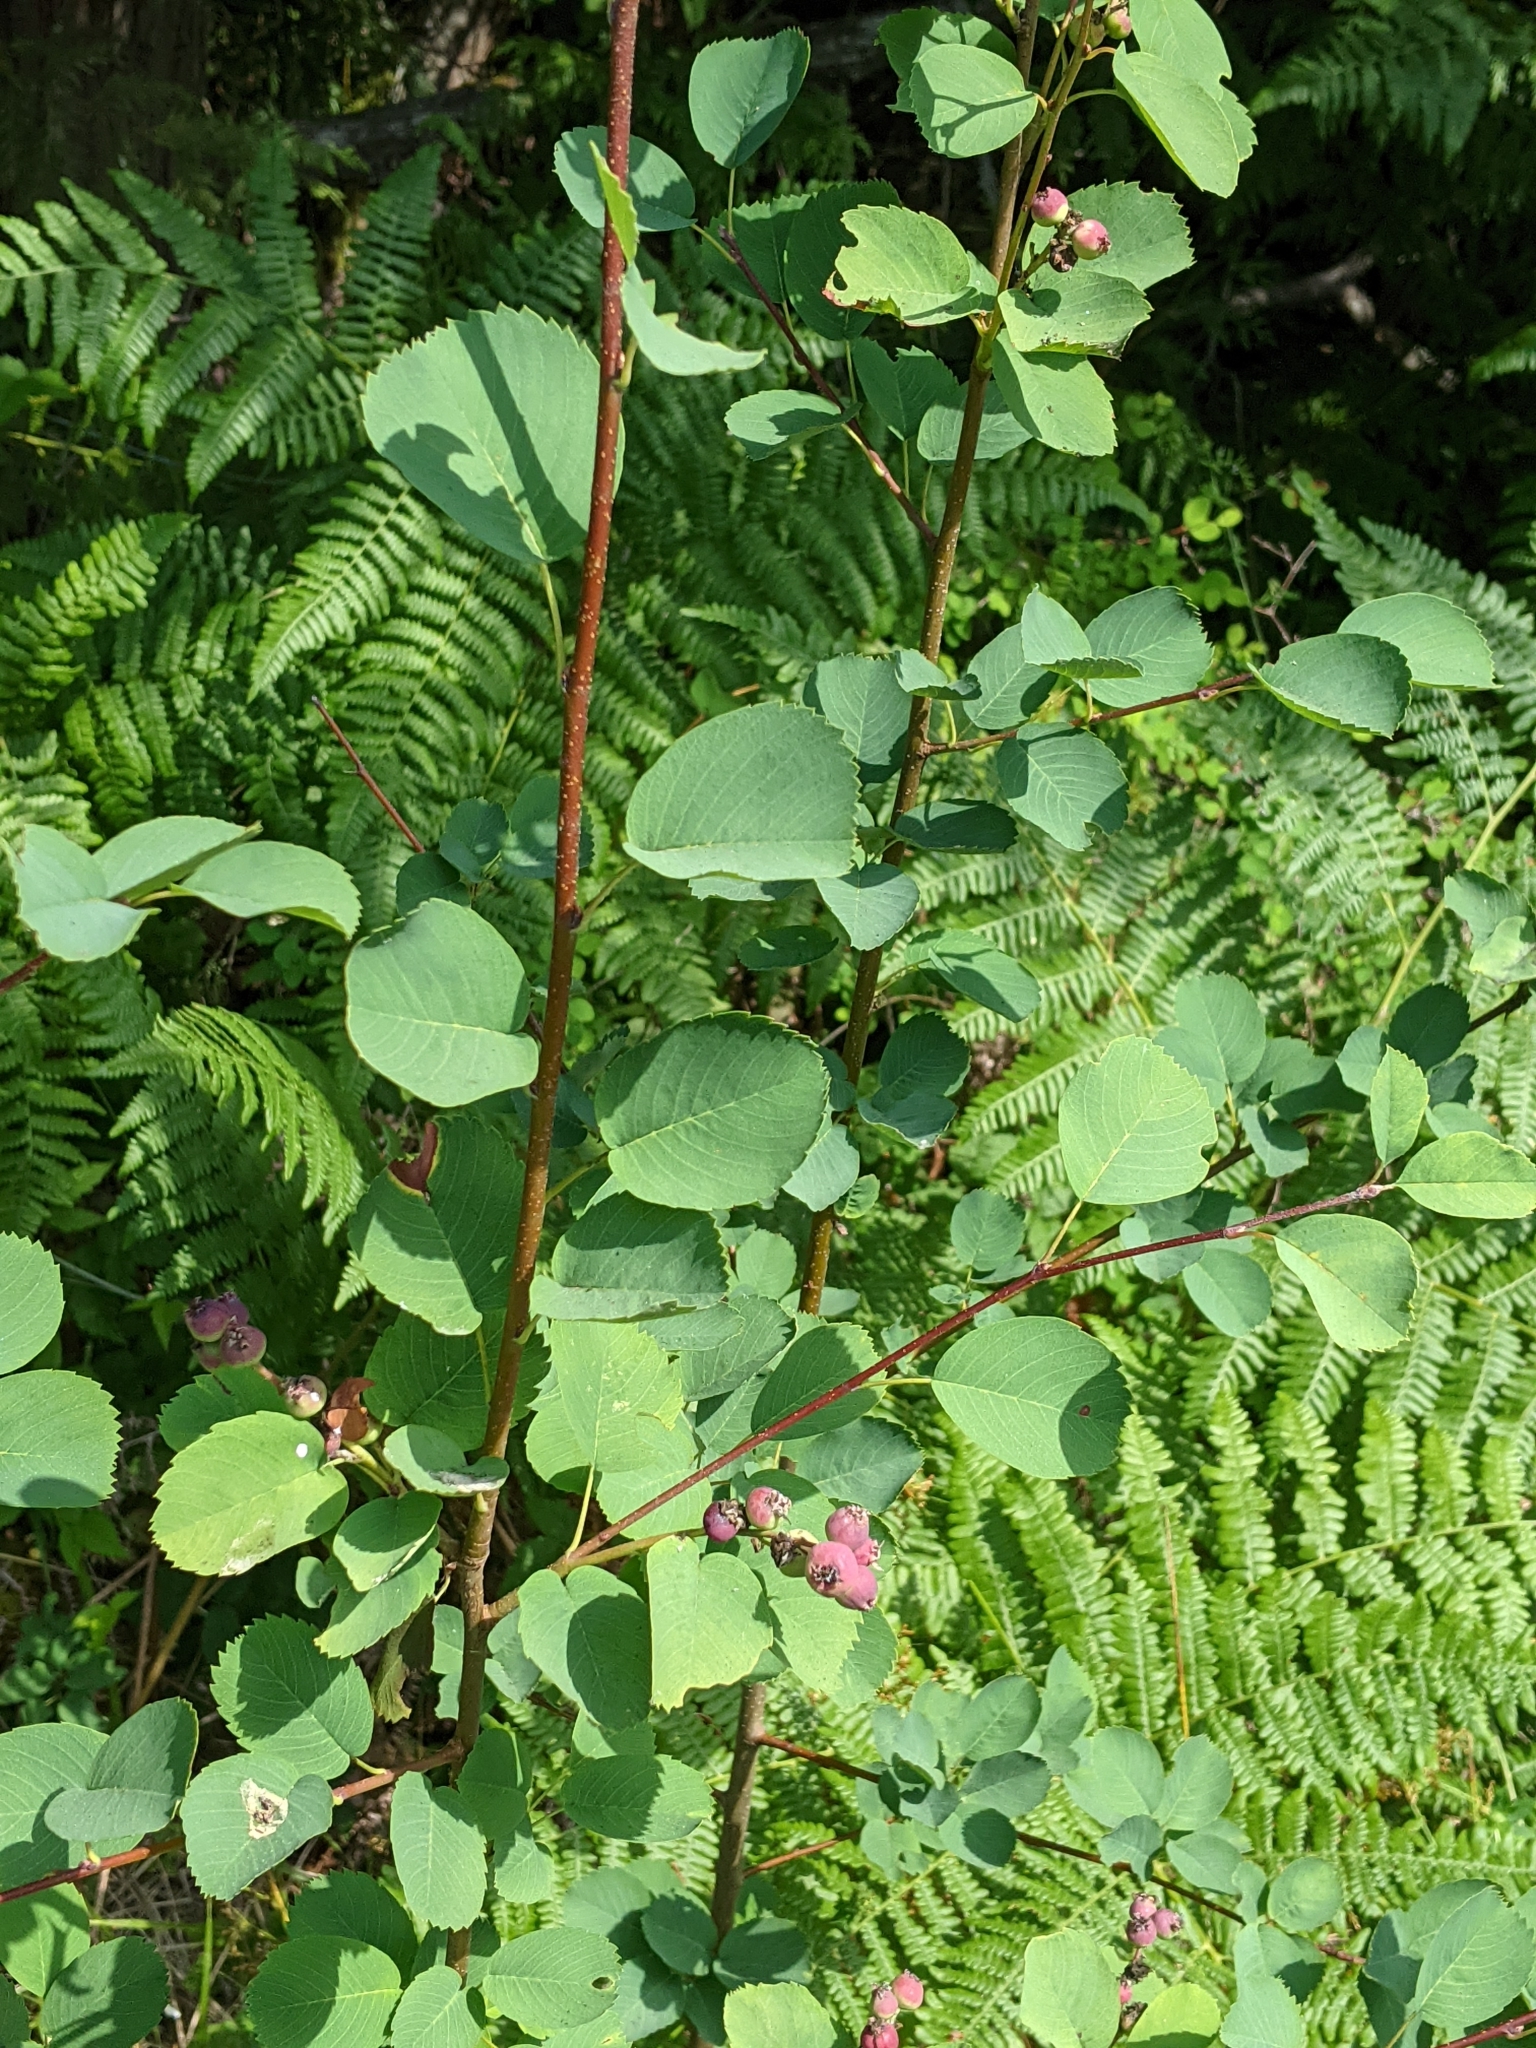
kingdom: Plantae
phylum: Tracheophyta
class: Magnoliopsida
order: Rosales
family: Rosaceae
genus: Amelanchier
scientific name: Amelanchier alnifolia
